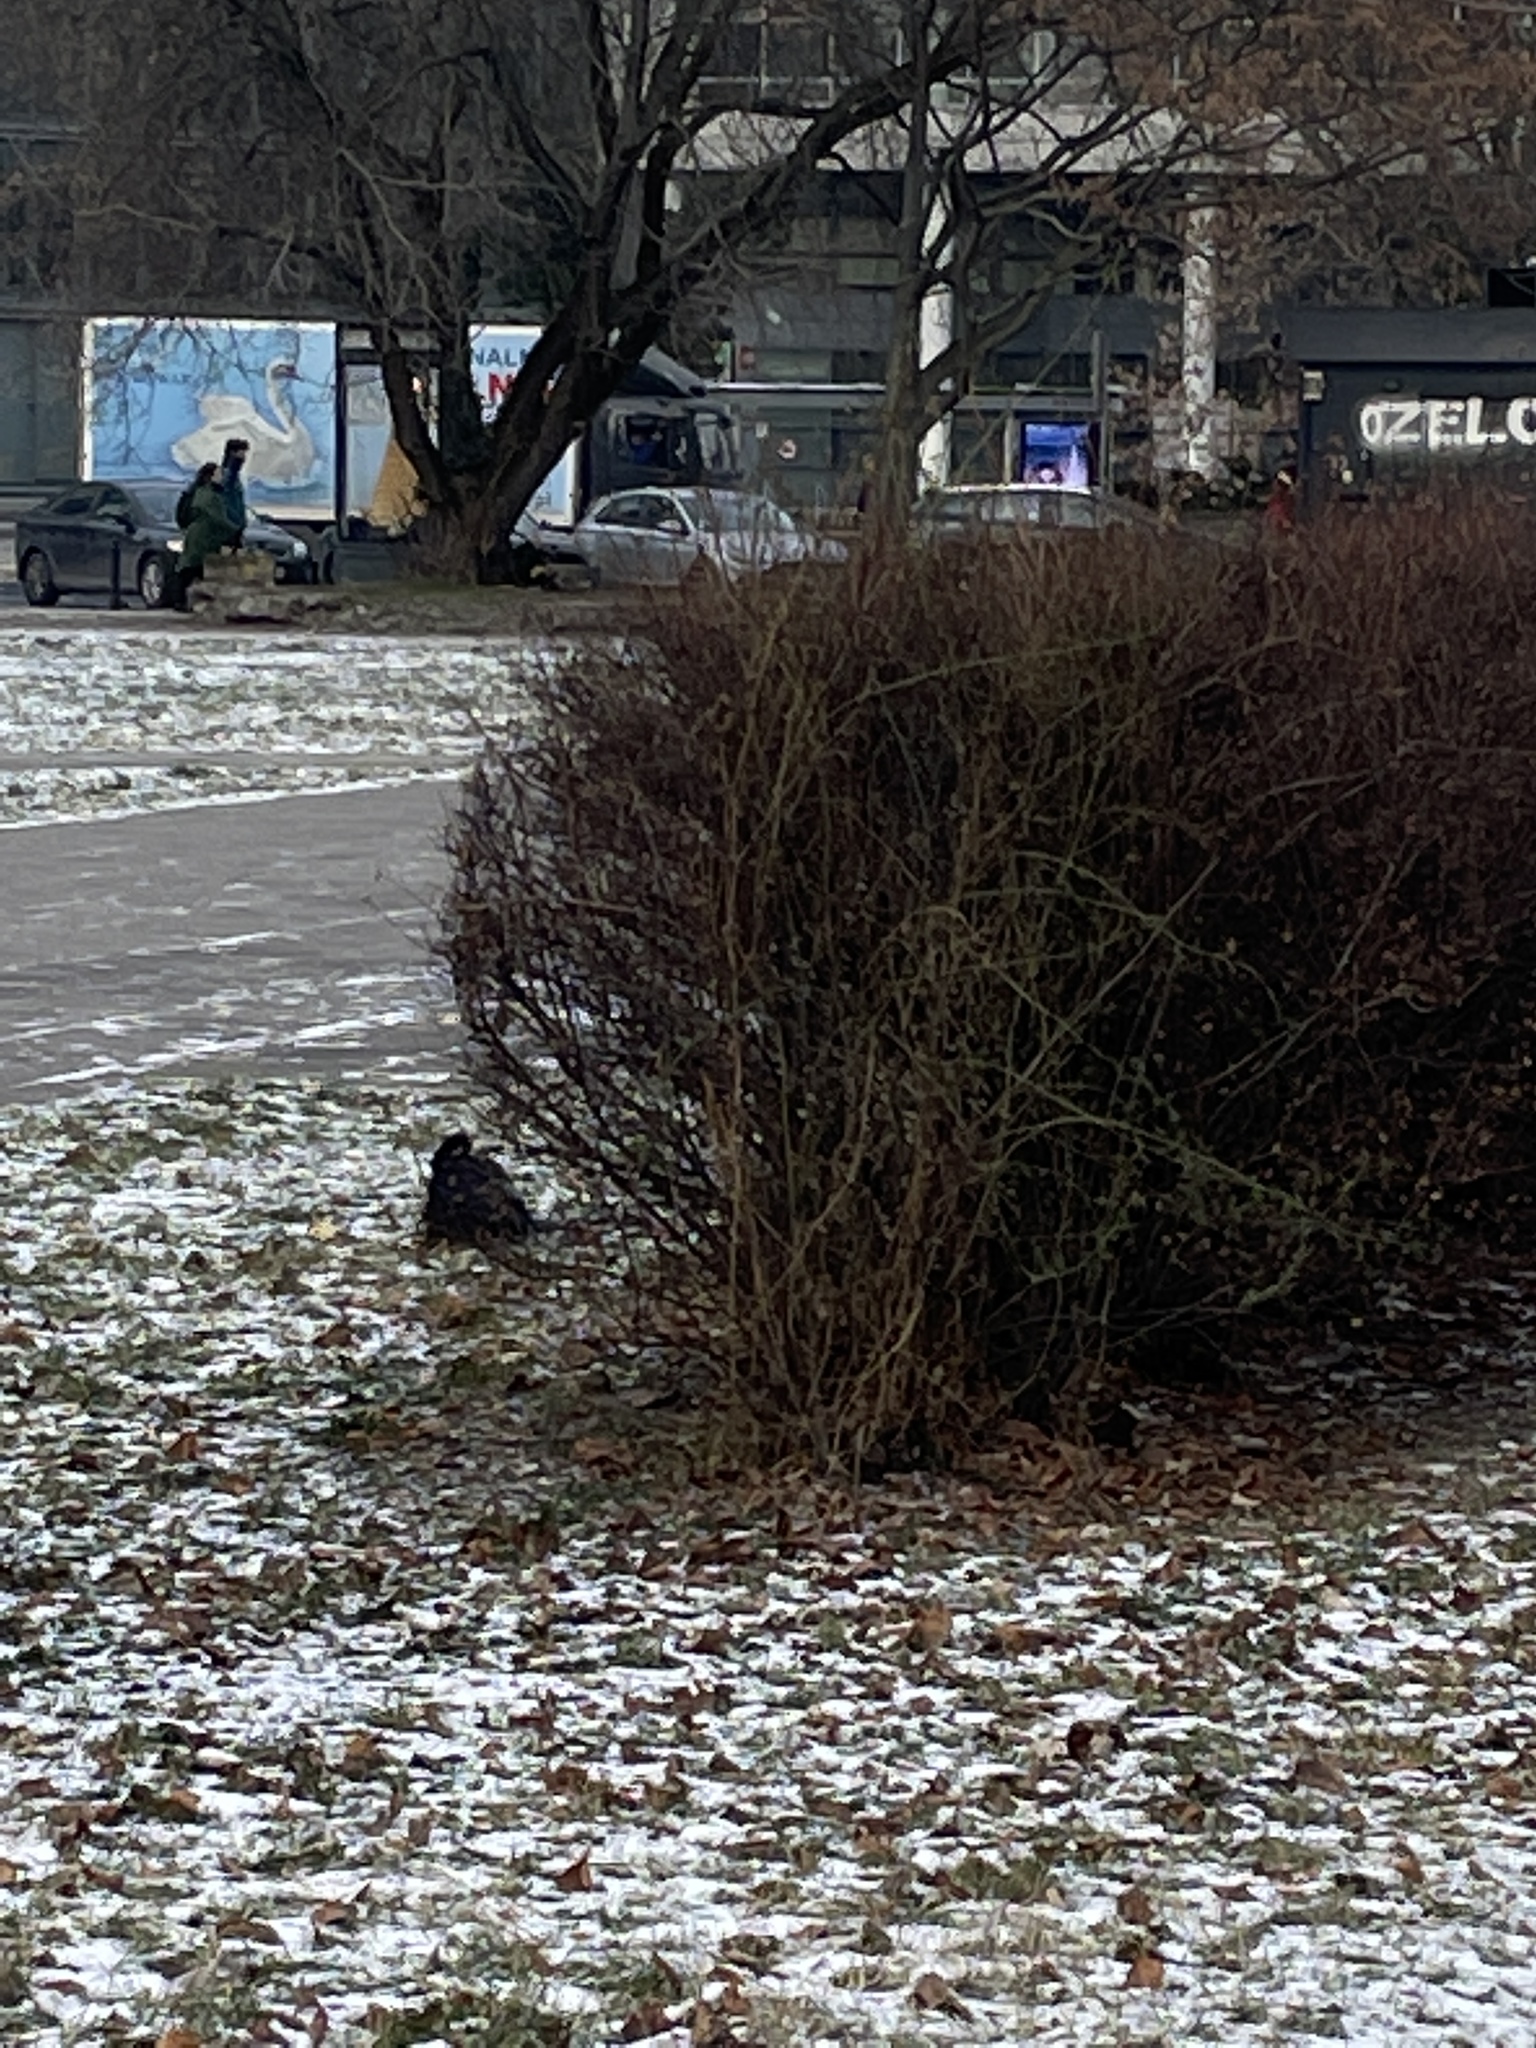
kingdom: Animalia
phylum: Chordata
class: Aves
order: Passeriformes
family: Corvidae
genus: Corvus
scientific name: Corvus frugilegus
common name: Rook
